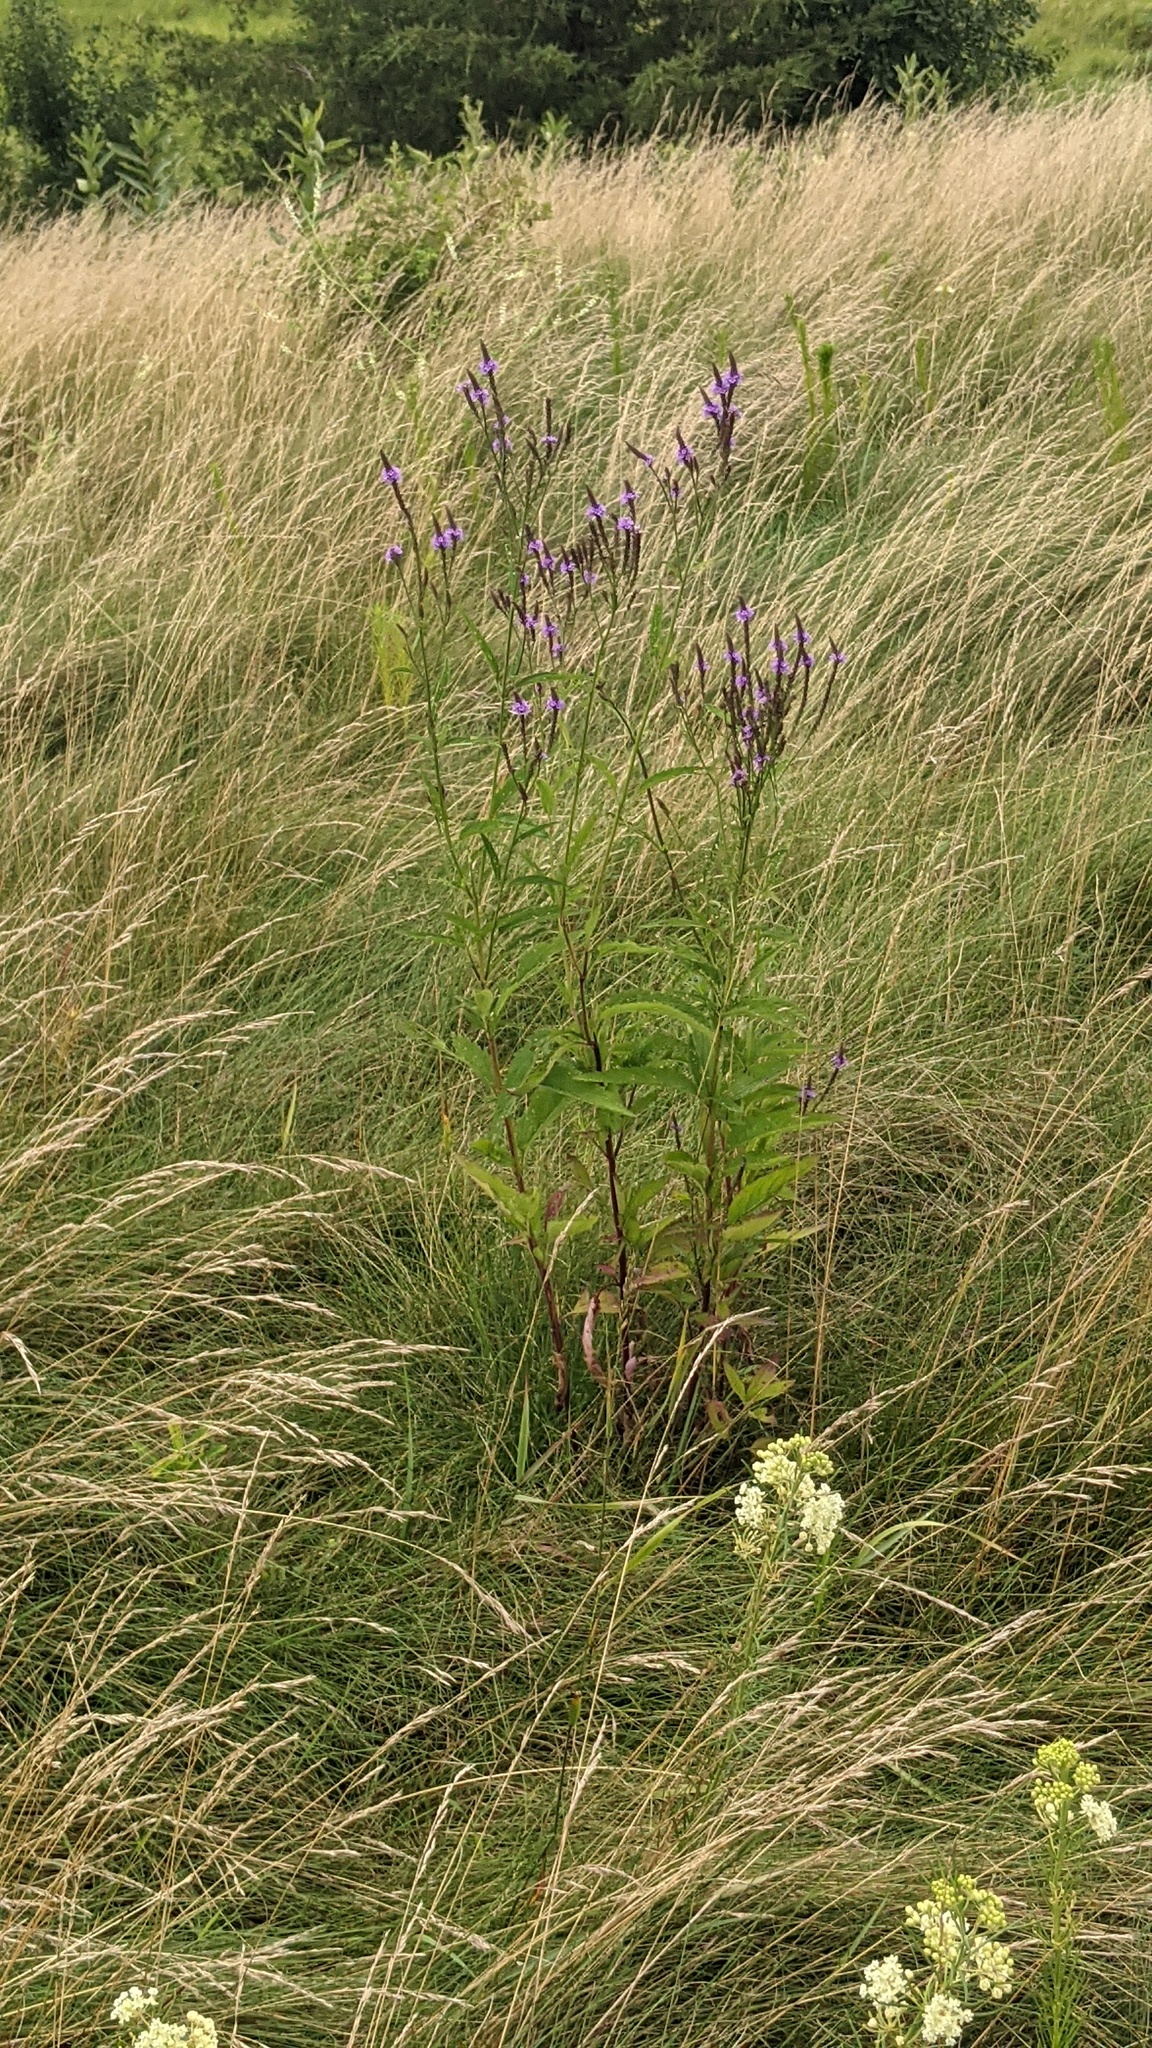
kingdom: Plantae
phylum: Tracheophyta
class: Magnoliopsida
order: Lamiales
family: Verbenaceae
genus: Verbena
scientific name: Verbena hastata
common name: American blue vervain
